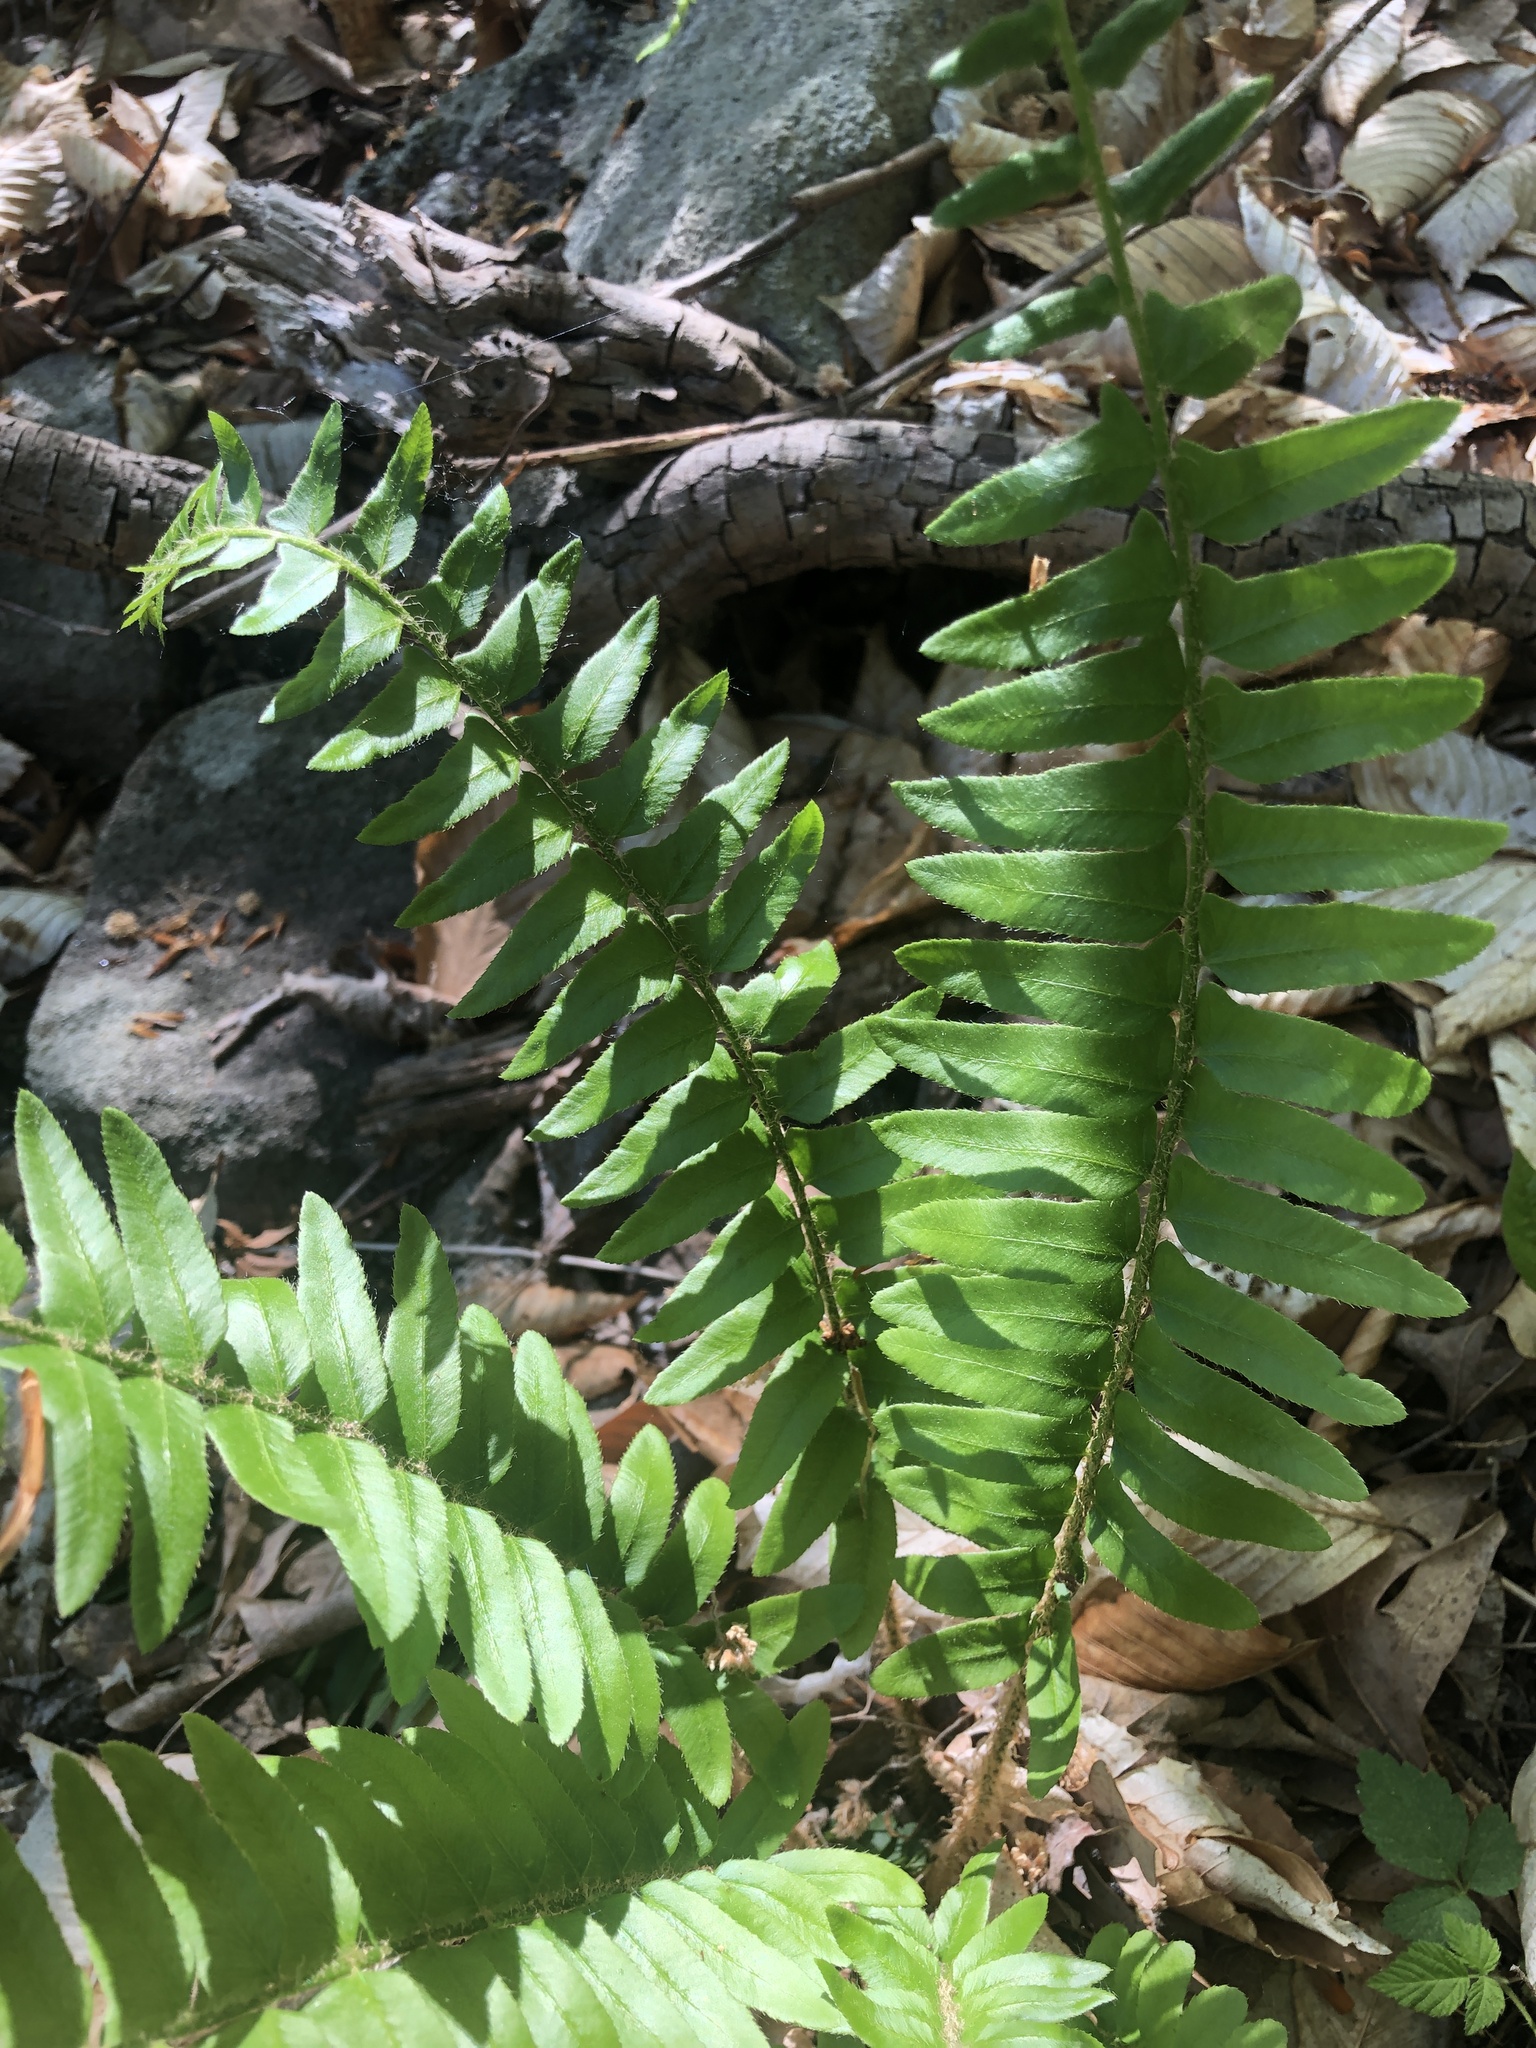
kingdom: Plantae
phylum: Tracheophyta
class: Polypodiopsida
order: Polypodiales
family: Dryopteridaceae
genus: Polystichum
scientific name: Polystichum acrostichoides
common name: Christmas fern
